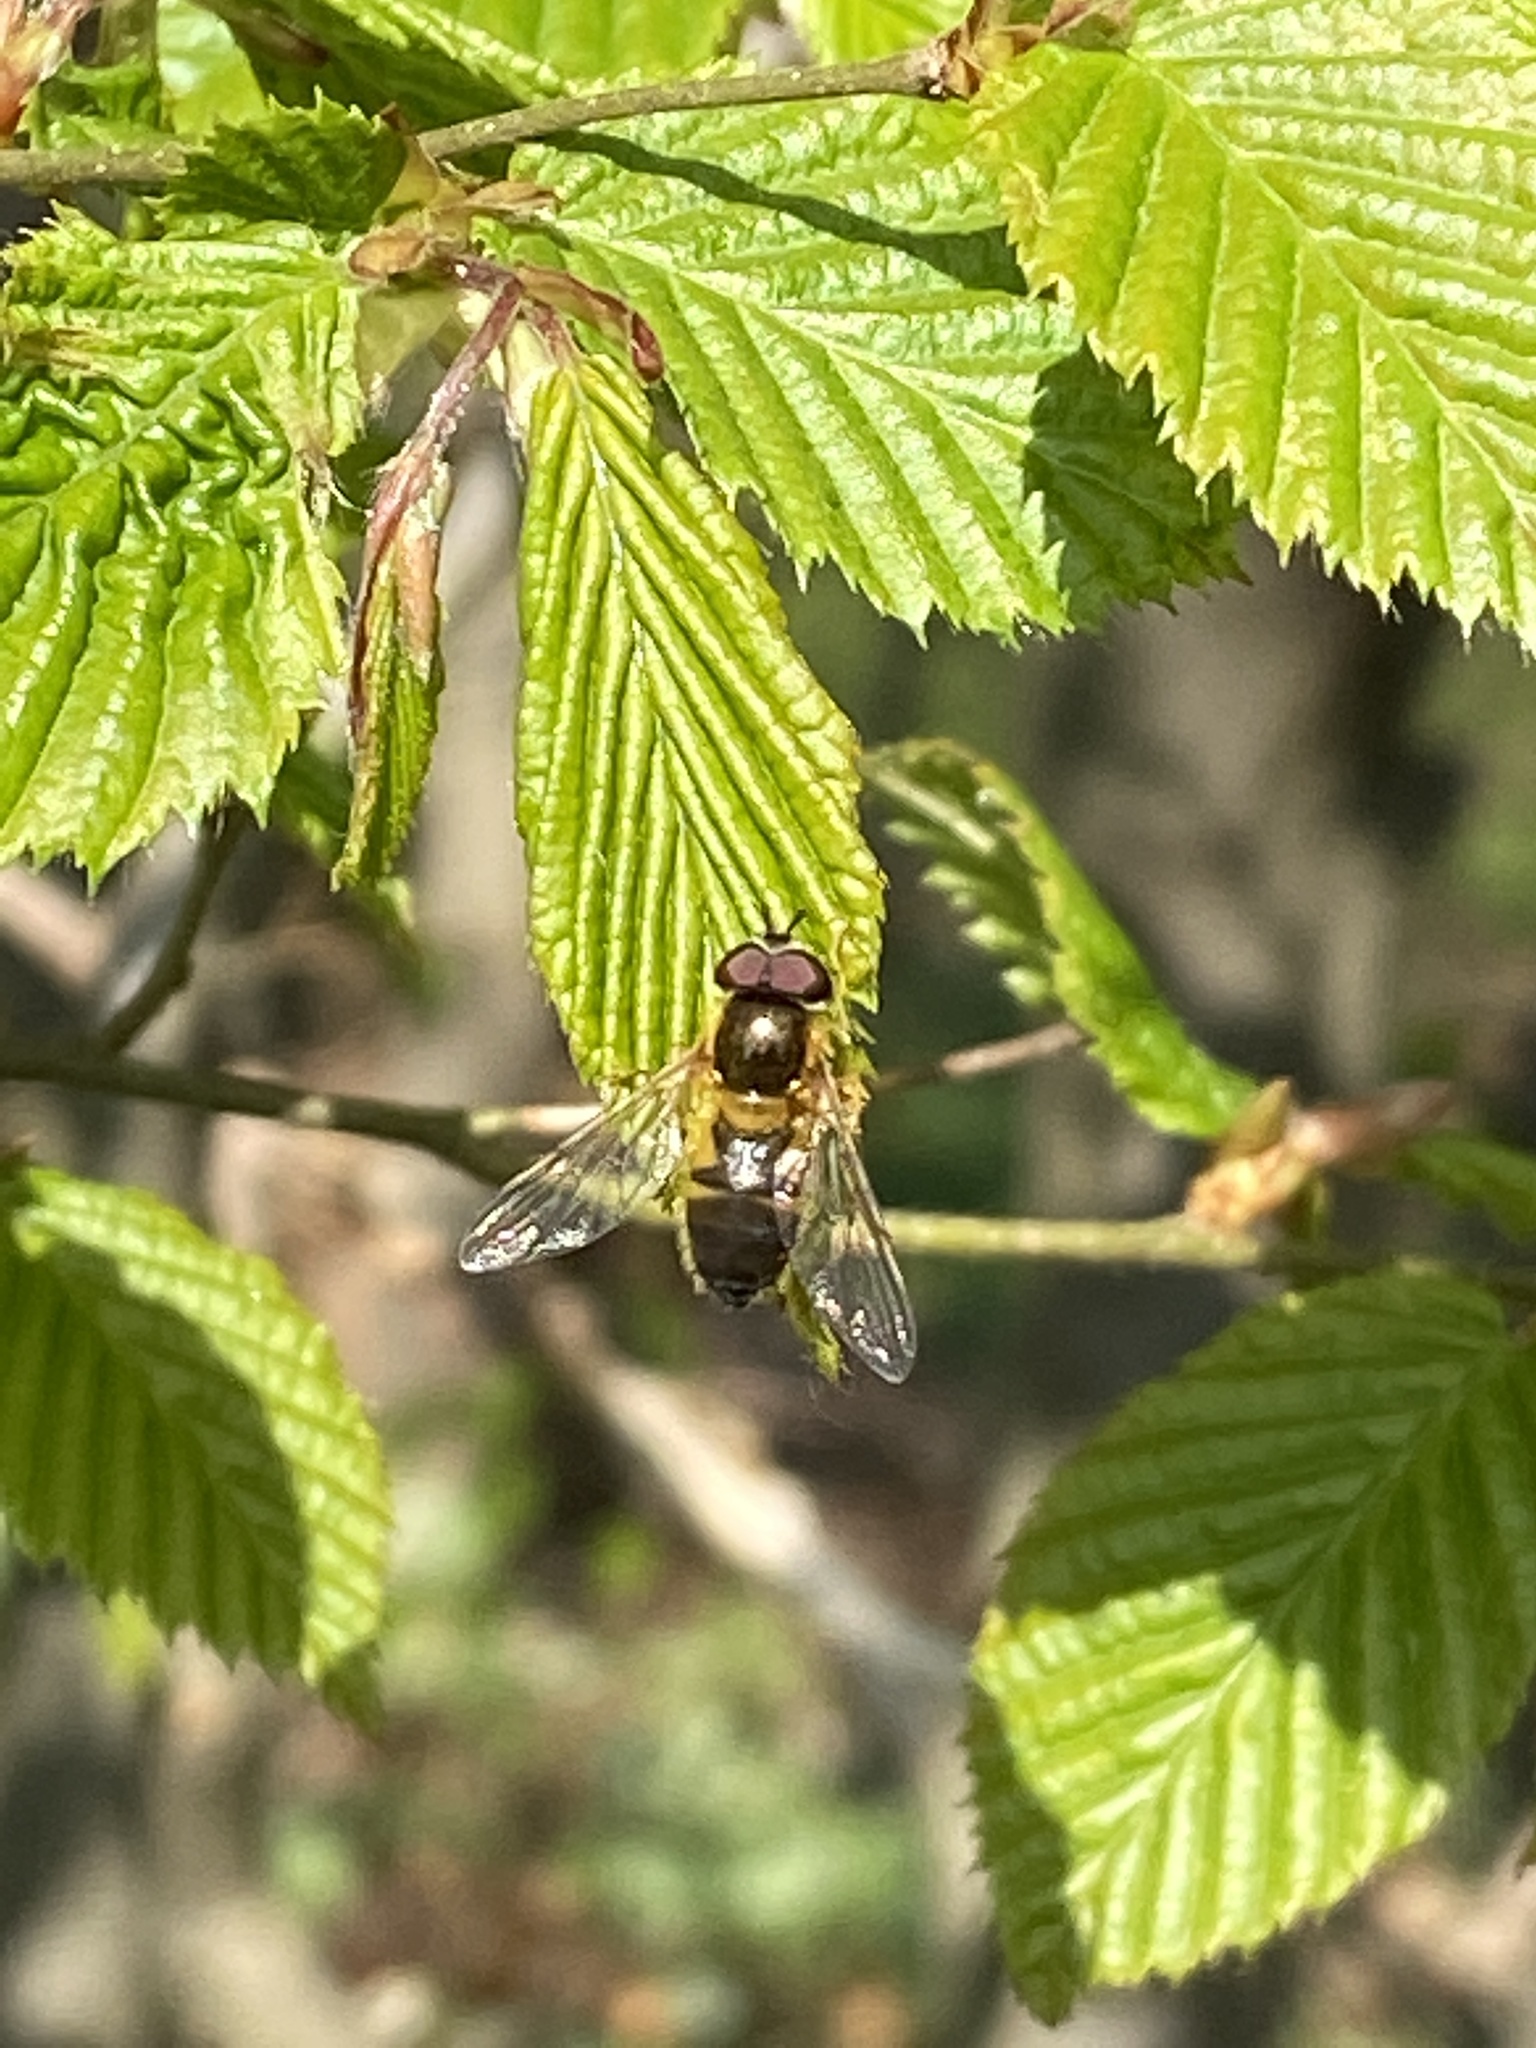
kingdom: Animalia
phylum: Arthropoda
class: Insecta
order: Diptera
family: Syrphidae
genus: Epistrophe
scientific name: Epistrophe eligans
